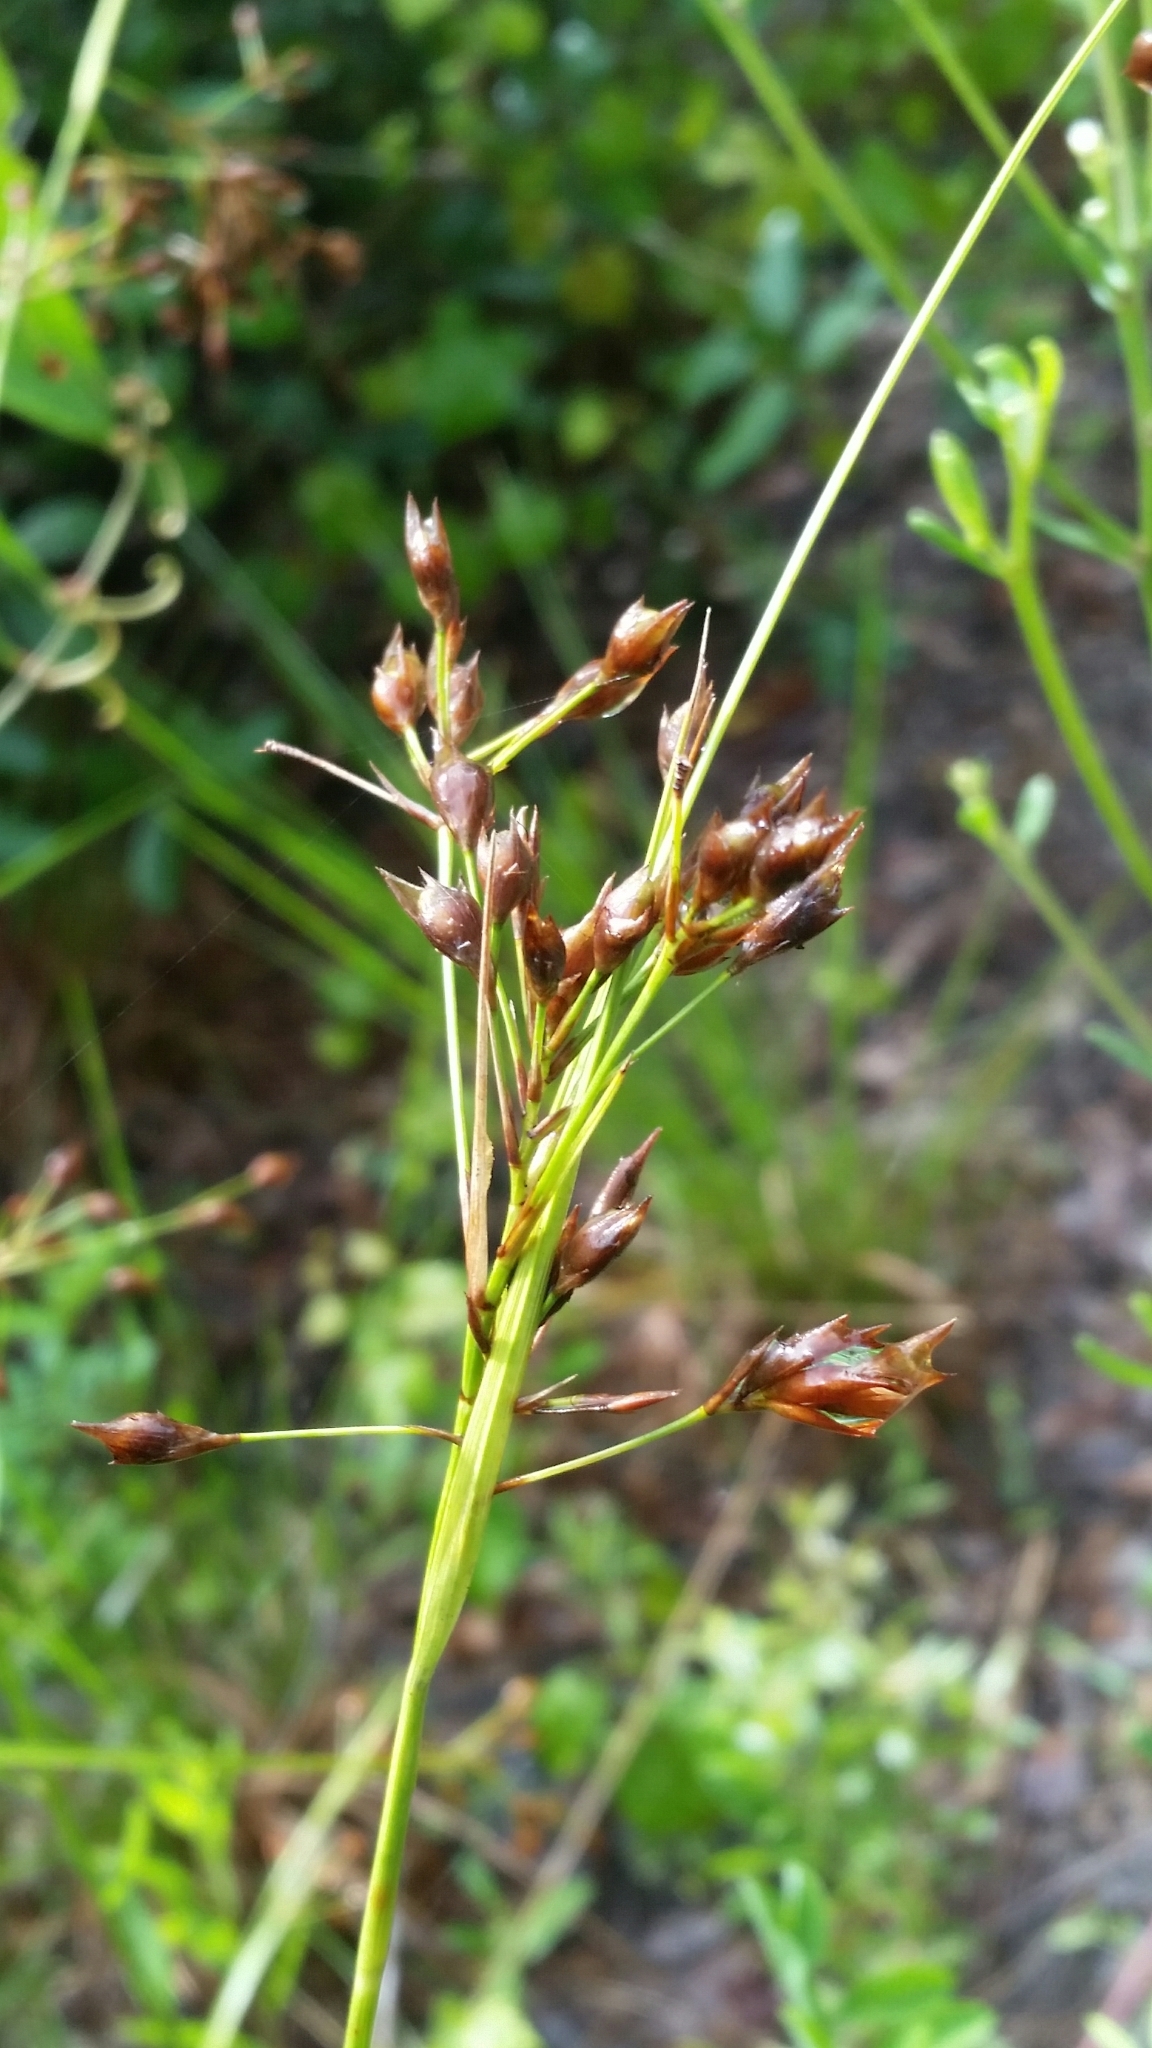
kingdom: Plantae
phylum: Tracheophyta
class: Liliopsida
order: Poales
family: Cyperaceae
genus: Rhynchospora
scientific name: Rhynchospora megalocarpa
